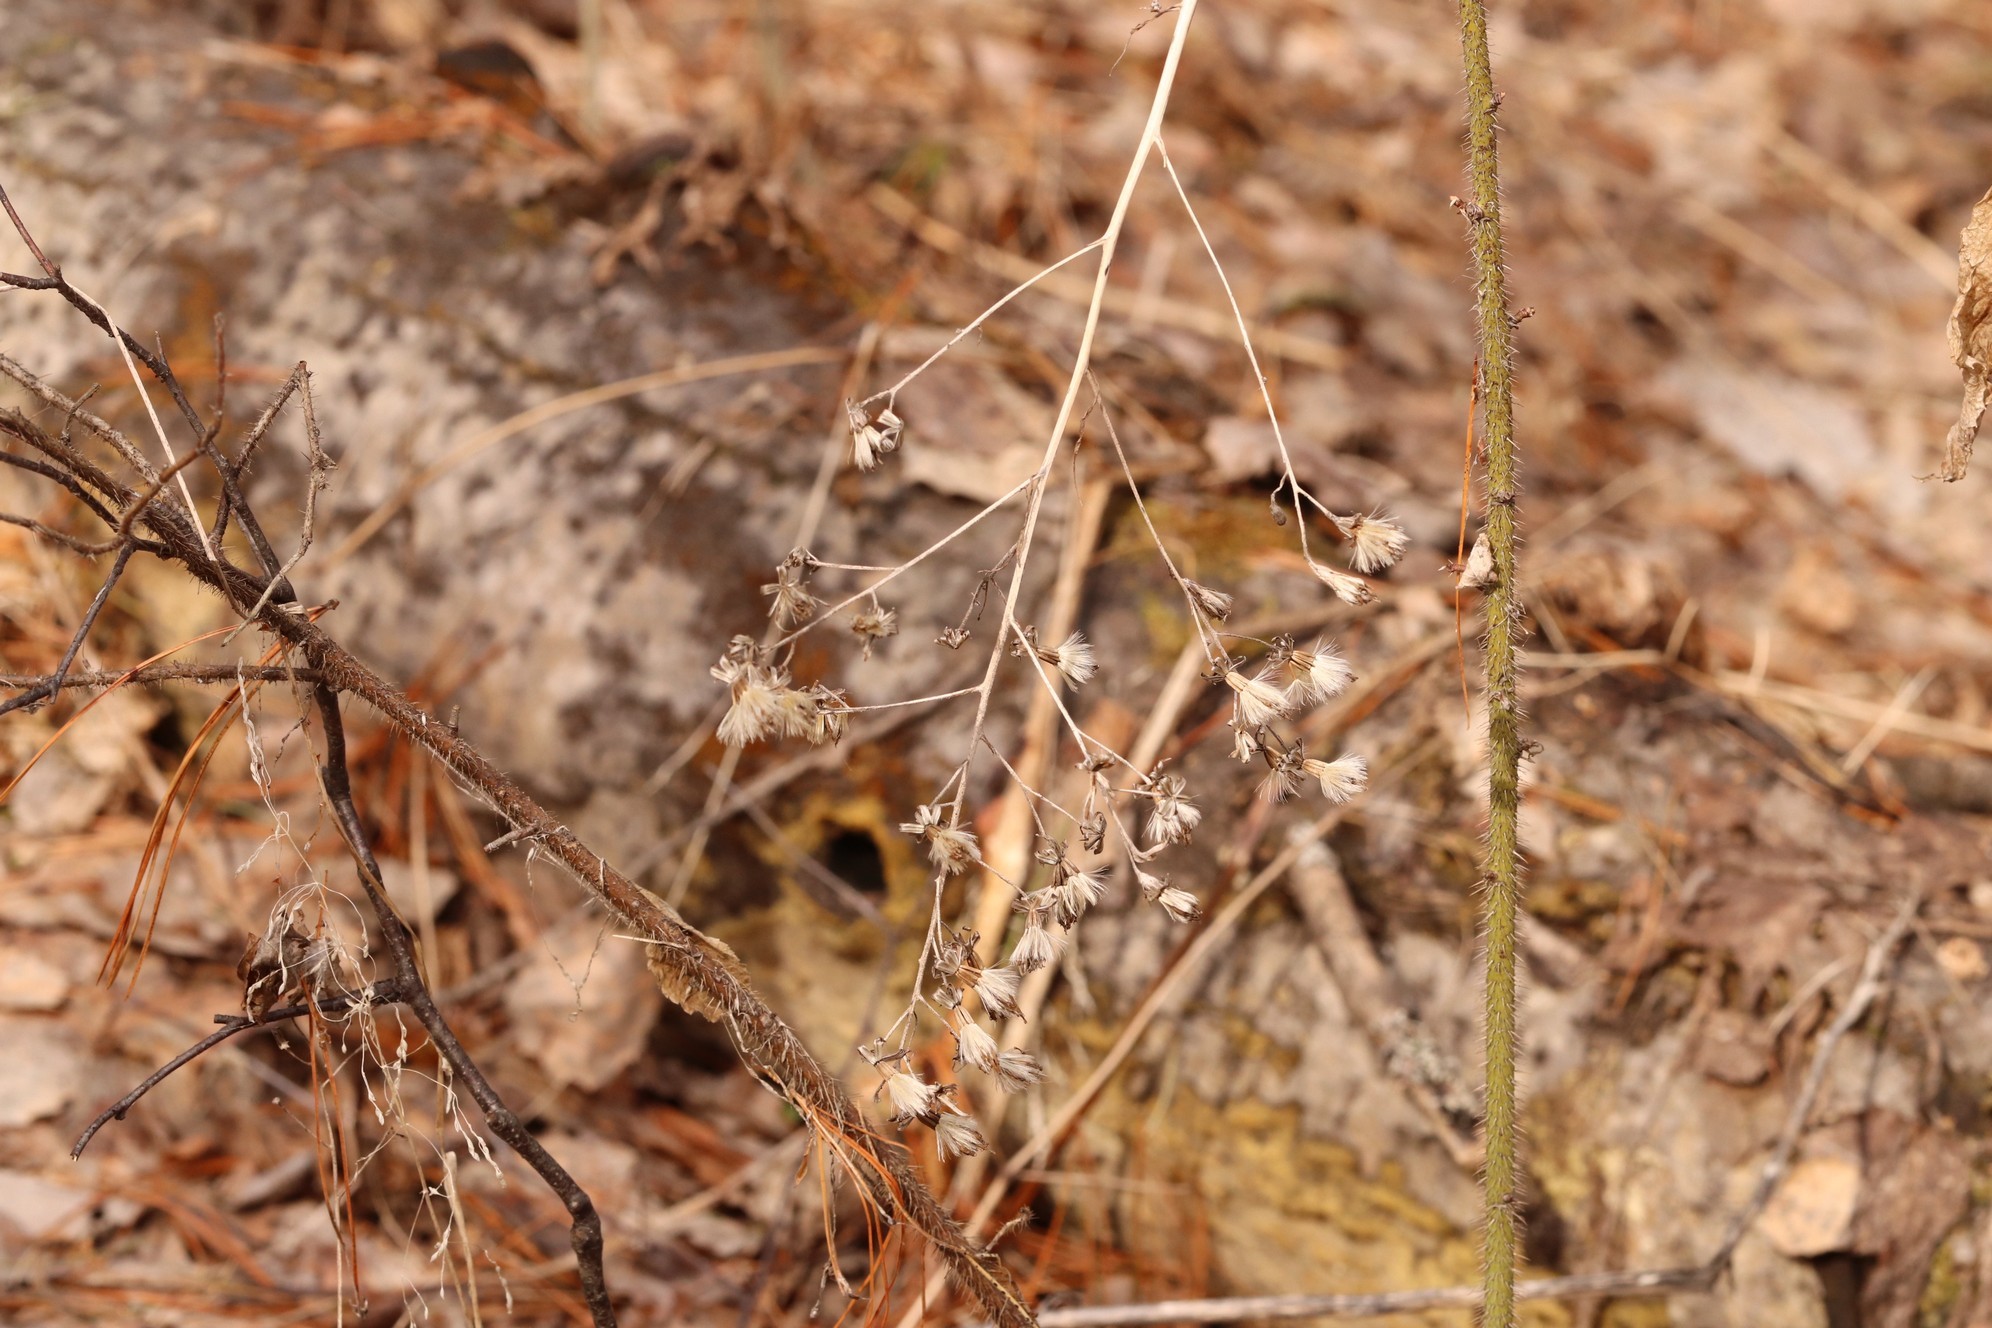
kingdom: Plantae
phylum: Tracheophyta
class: Magnoliopsida
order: Asterales
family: Asteraceae
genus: Parasenecio
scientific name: Parasenecio hastatus
